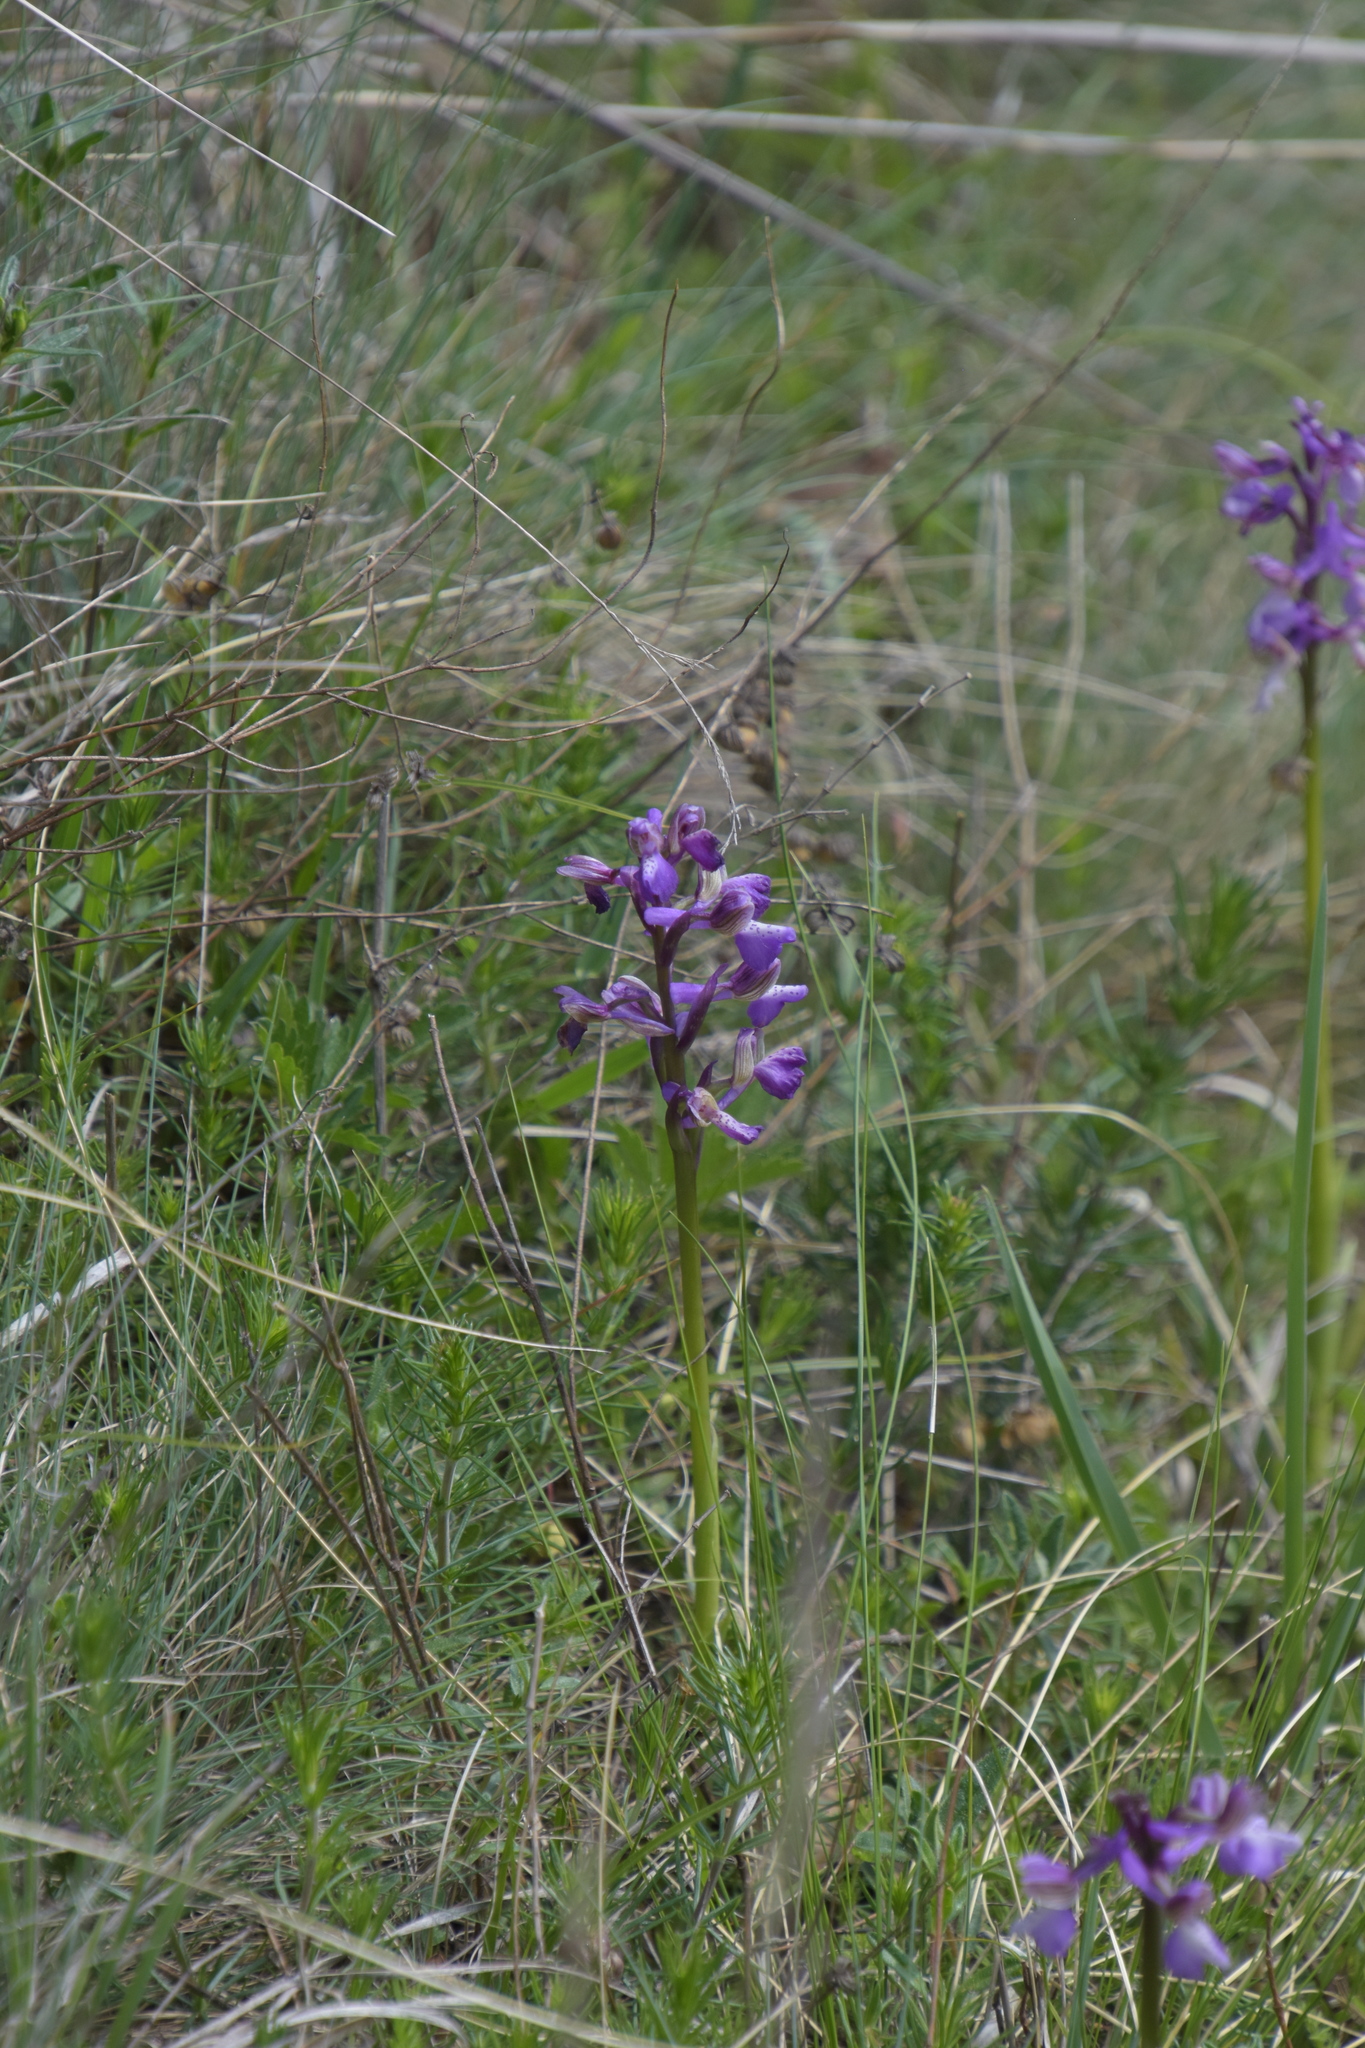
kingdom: Plantae
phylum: Tracheophyta
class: Liliopsida
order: Asparagales
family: Orchidaceae
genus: Anacamptis
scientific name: Anacamptis morio
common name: Green-winged orchid
